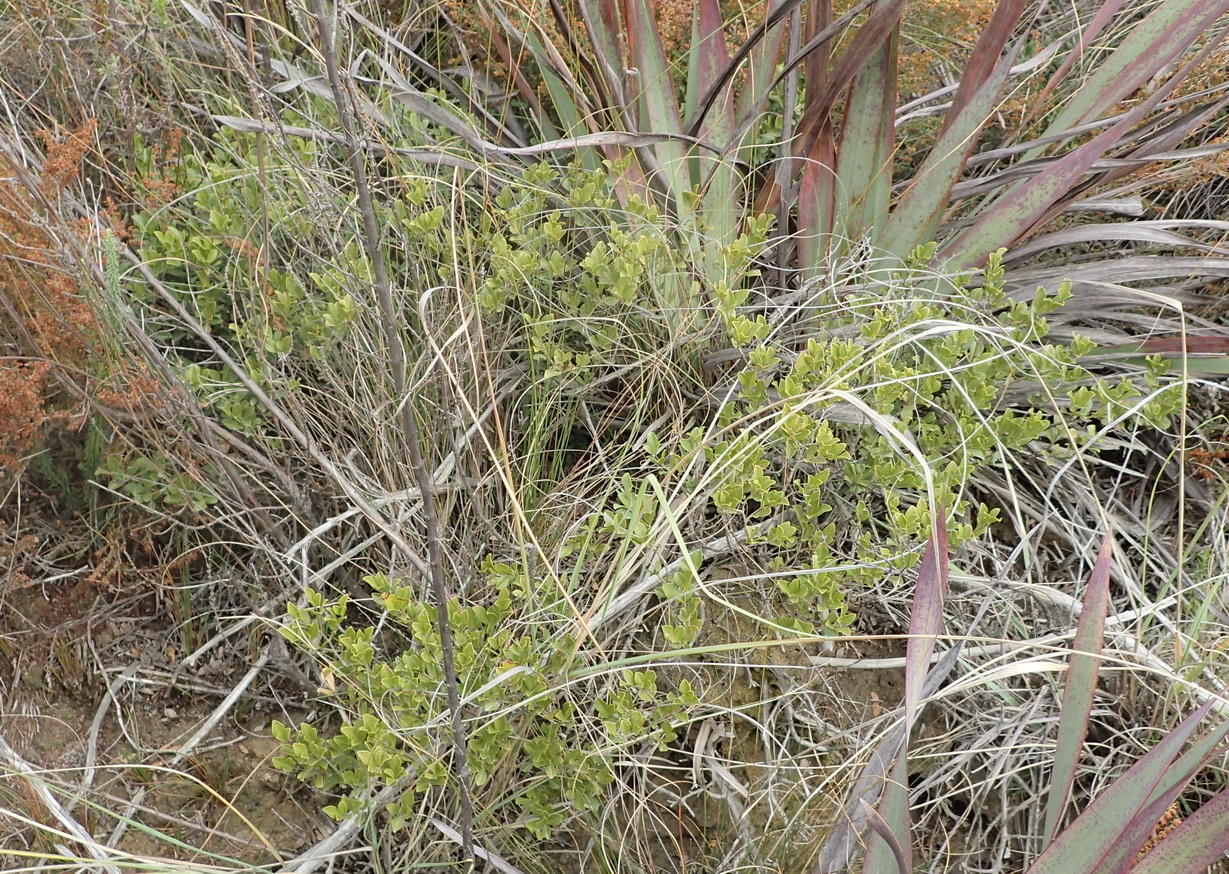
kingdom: Plantae
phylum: Tracheophyta
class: Magnoliopsida
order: Fabales
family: Fabaceae
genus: Psoralea
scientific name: Psoralea bowieana
